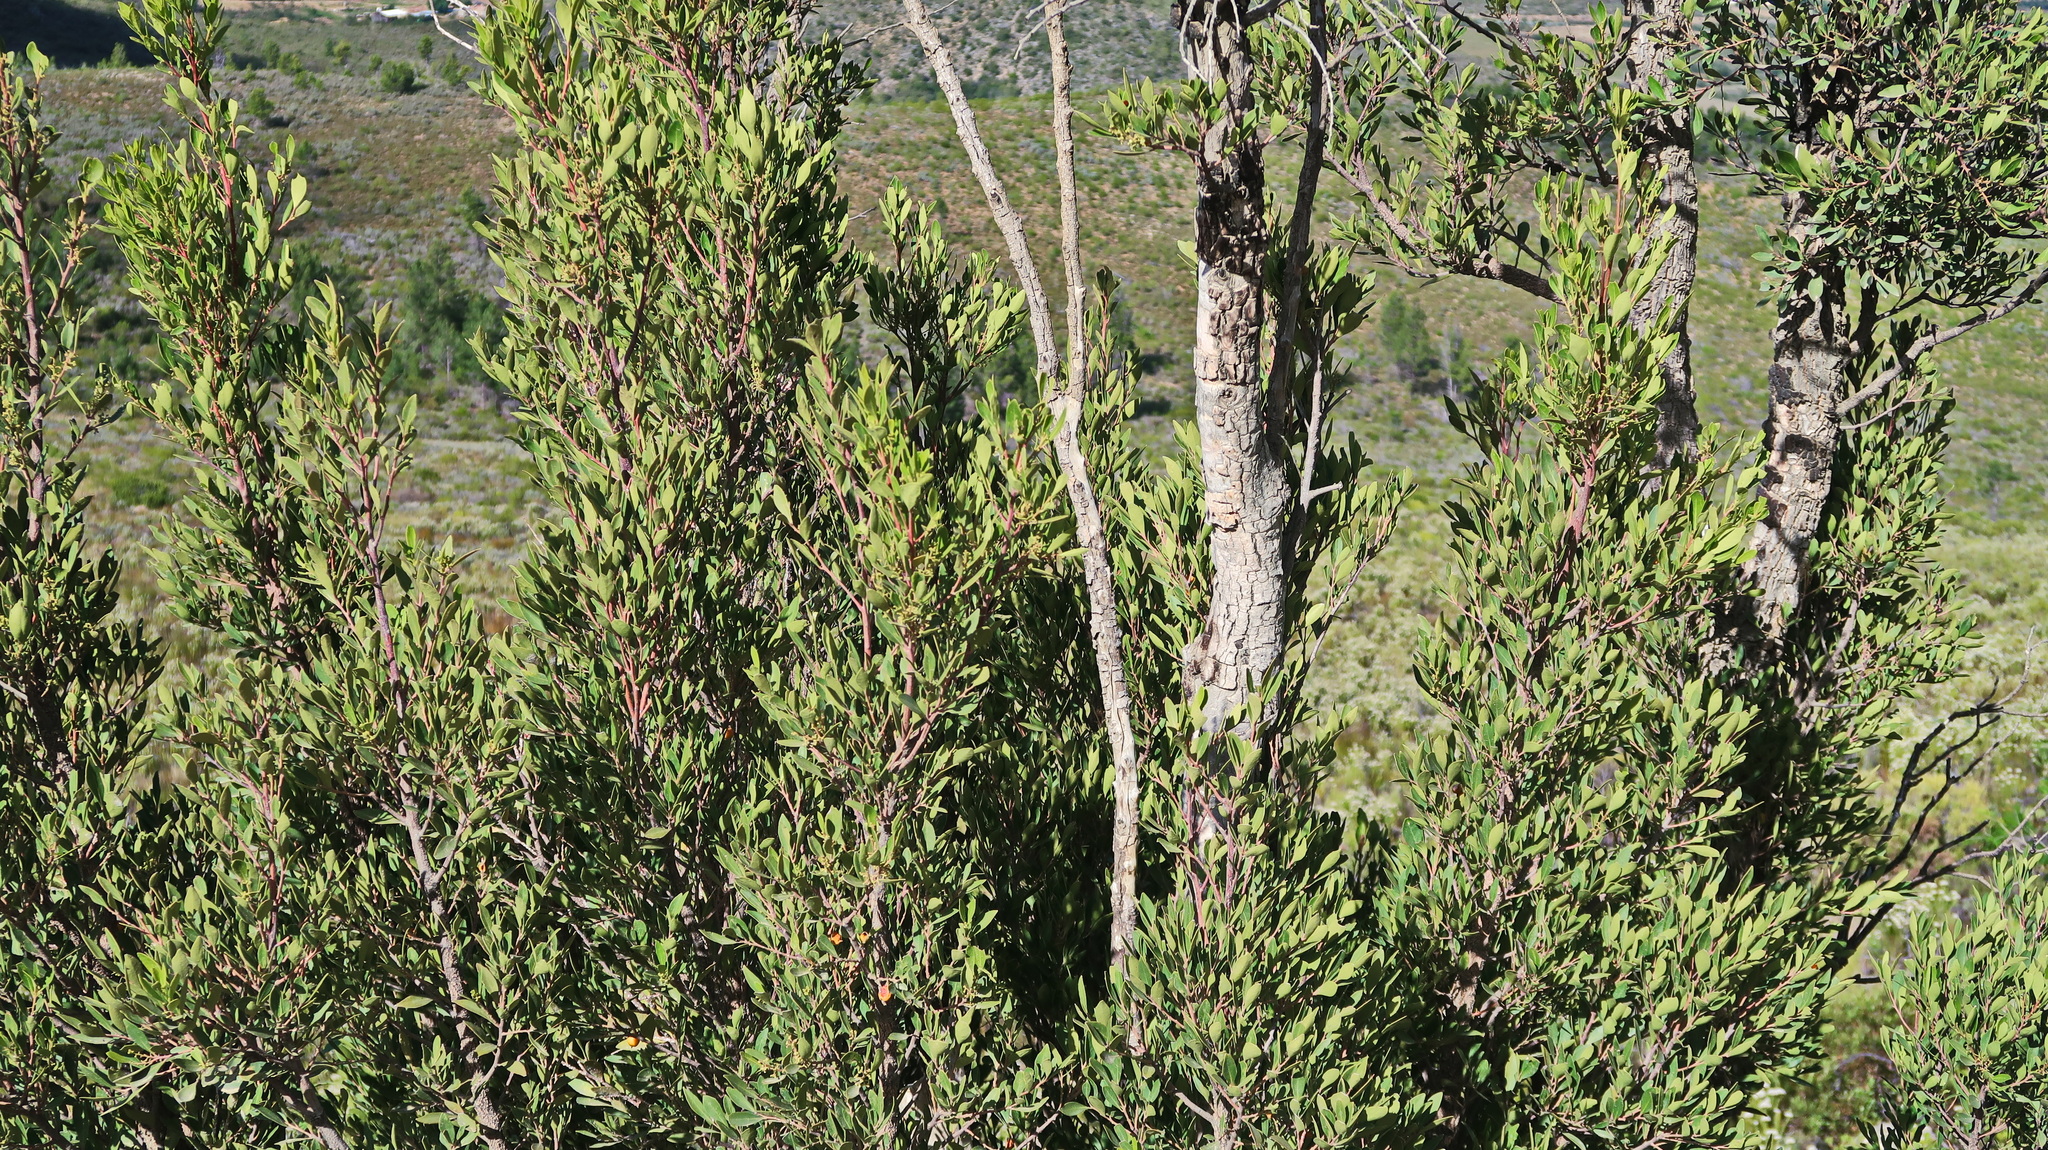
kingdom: Plantae
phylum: Tracheophyta
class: Magnoliopsida
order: Celastrales
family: Celastraceae
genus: Gymnosporia
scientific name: Gymnosporia laurina
